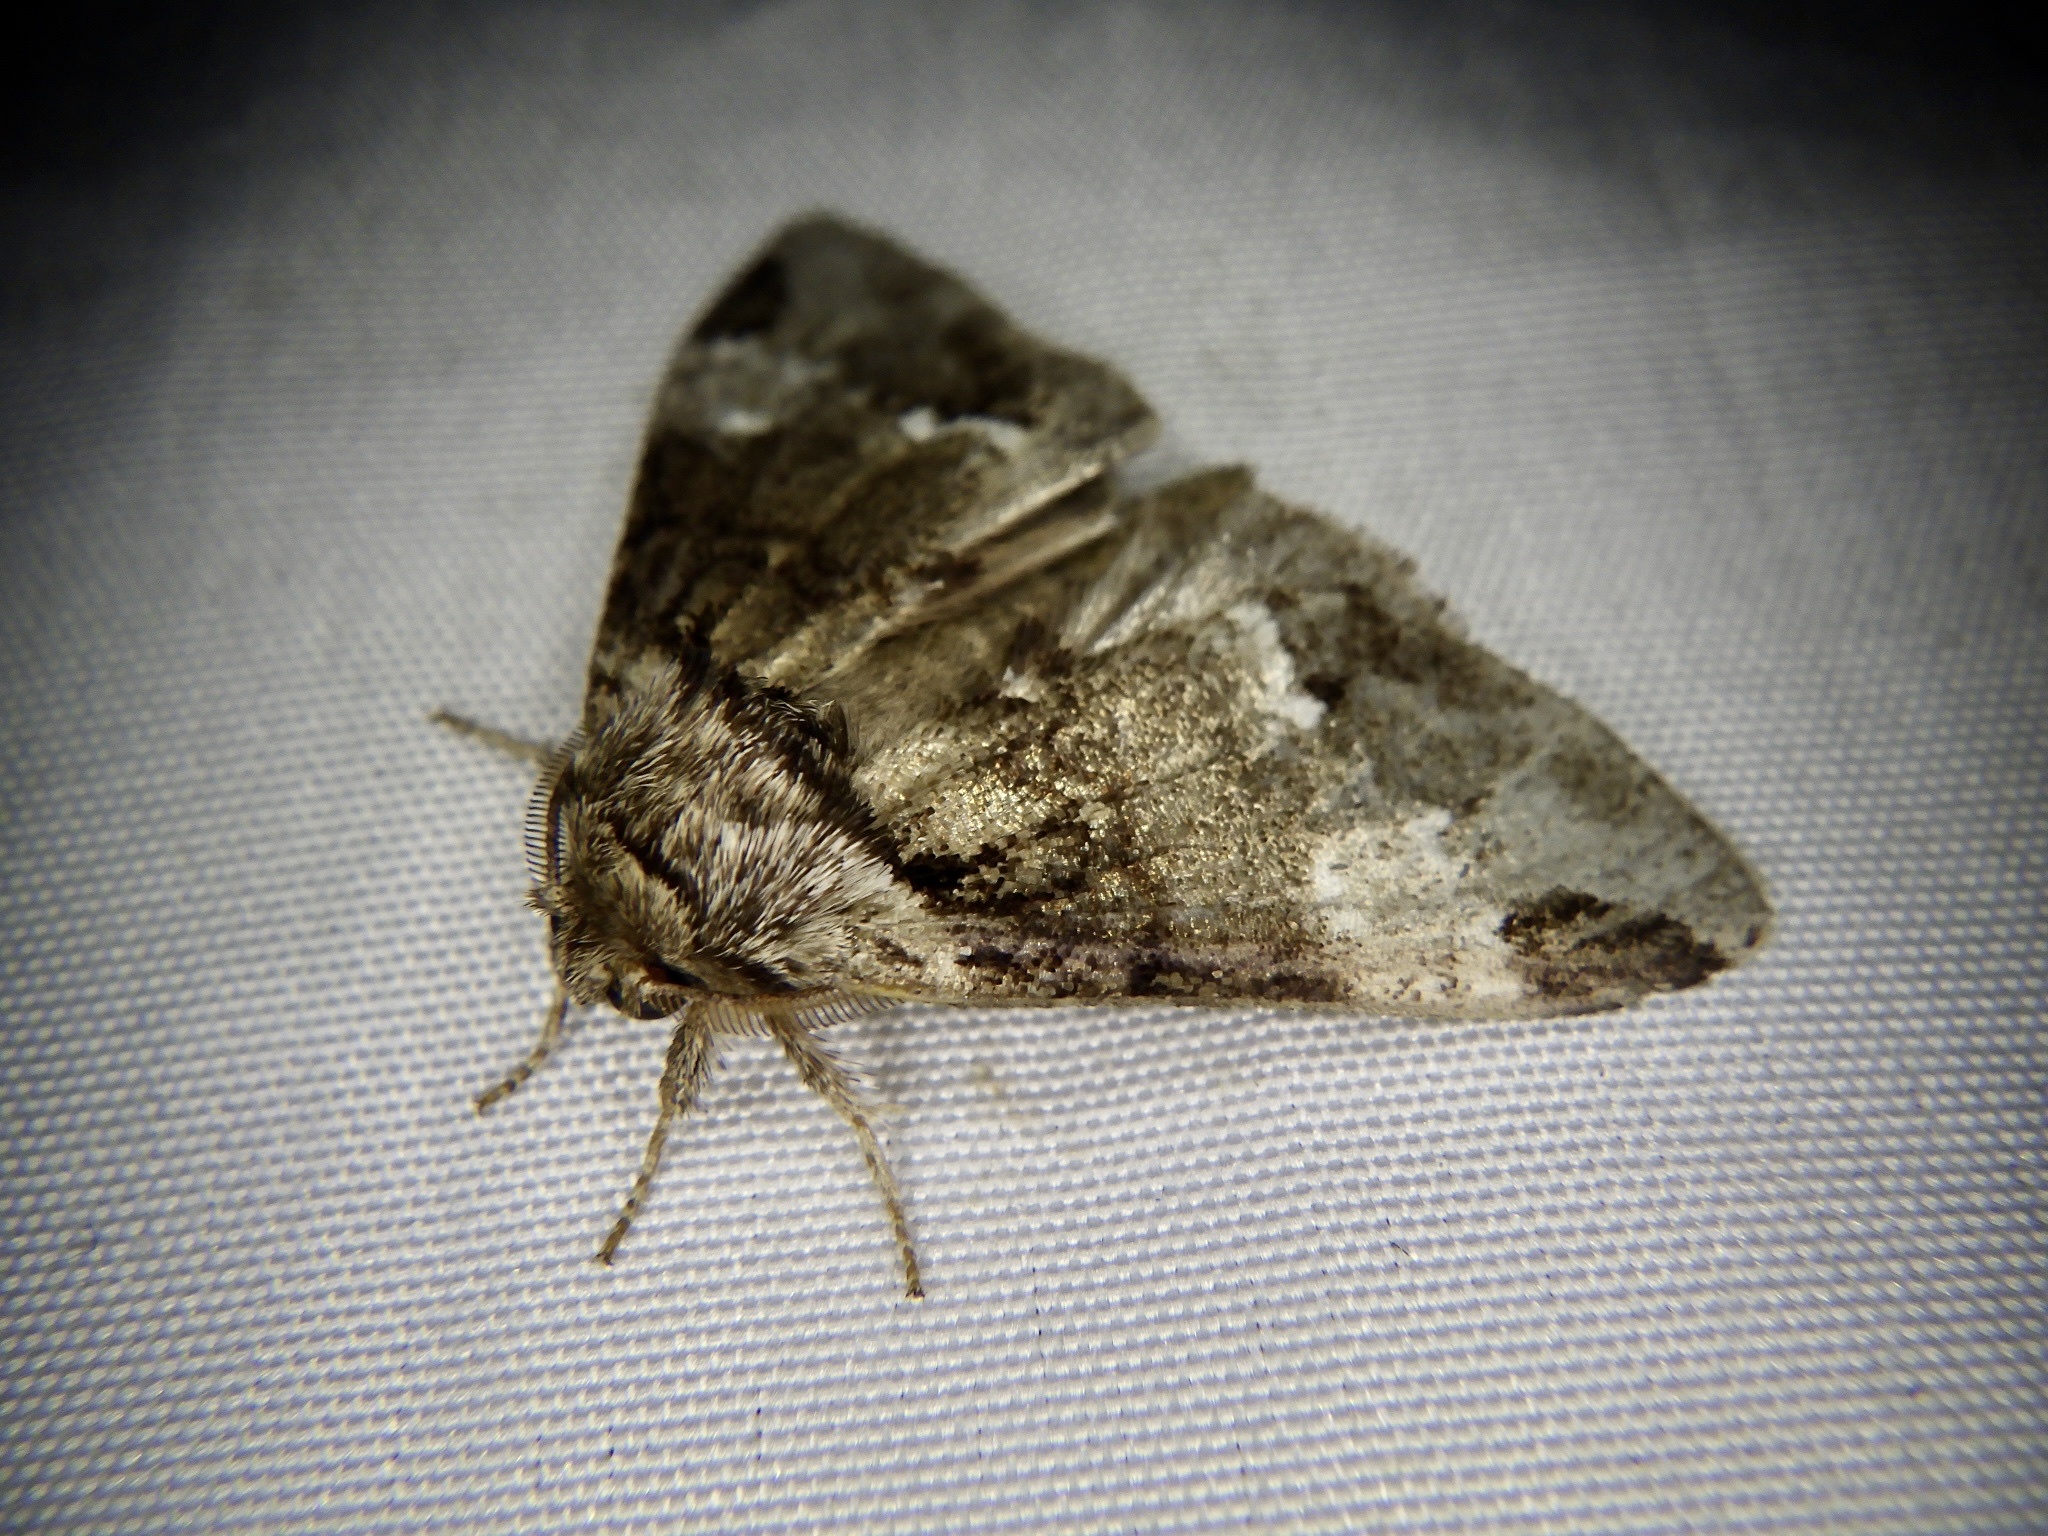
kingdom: Animalia
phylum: Arthropoda
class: Insecta
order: Lepidoptera
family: Notodontidae
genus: Drymonia
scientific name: Drymonia japonica
